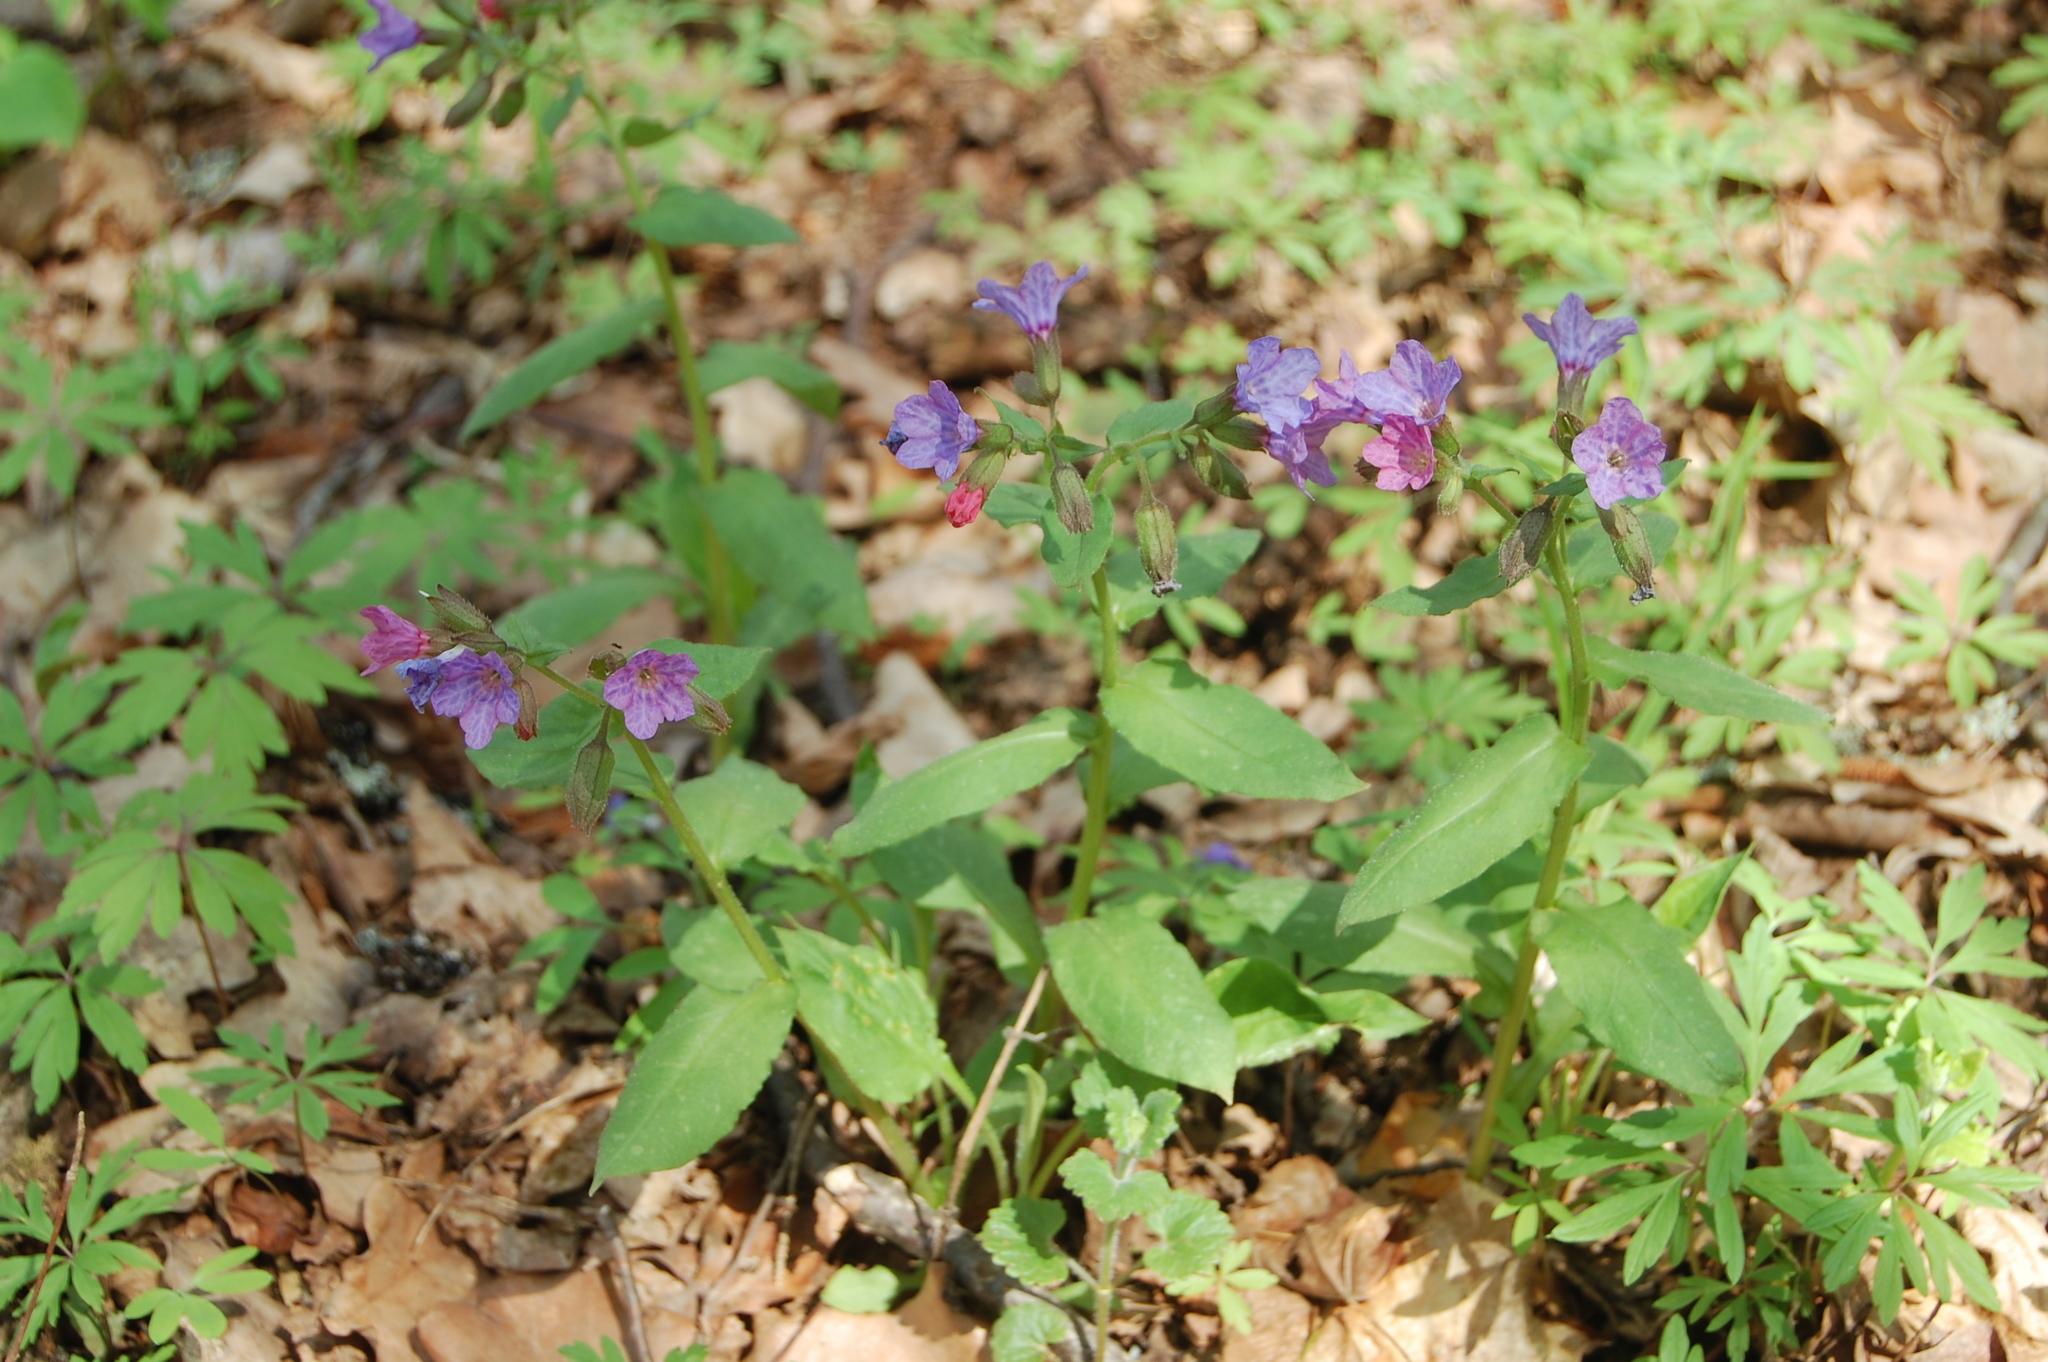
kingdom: Plantae
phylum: Tracheophyta
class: Magnoliopsida
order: Boraginales
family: Boraginaceae
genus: Pulmonaria
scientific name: Pulmonaria obscura
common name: Suffolk lungwort
